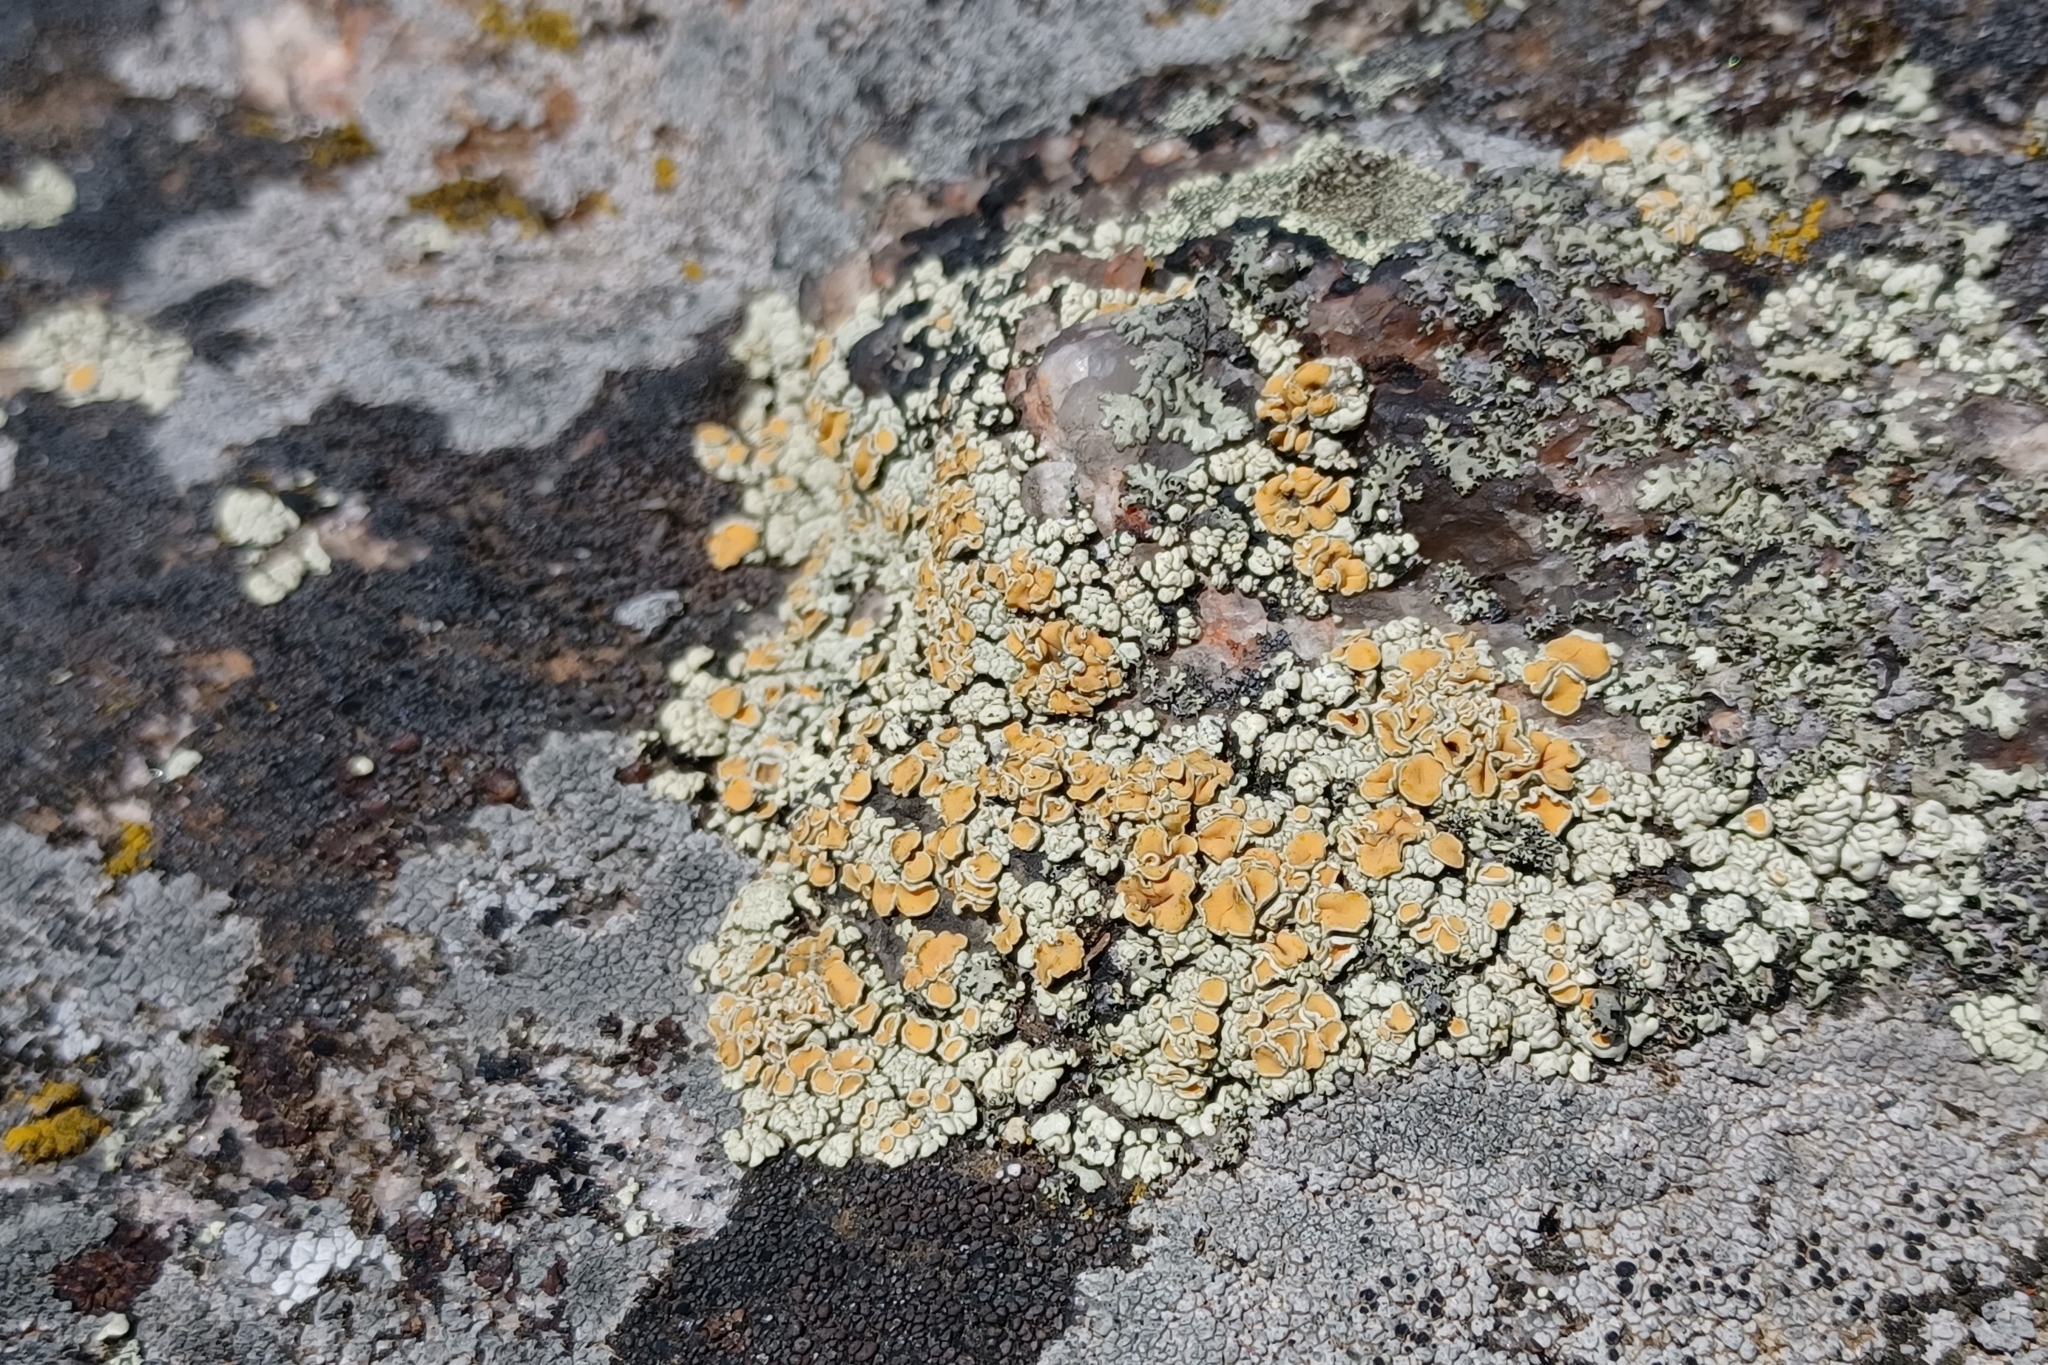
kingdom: Fungi
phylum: Ascomycota
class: Lecanoromycetes
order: Lecanorales
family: Lecanoraceae
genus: Sedelnikovaea
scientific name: Sedelnikovaea subdiscrepans
